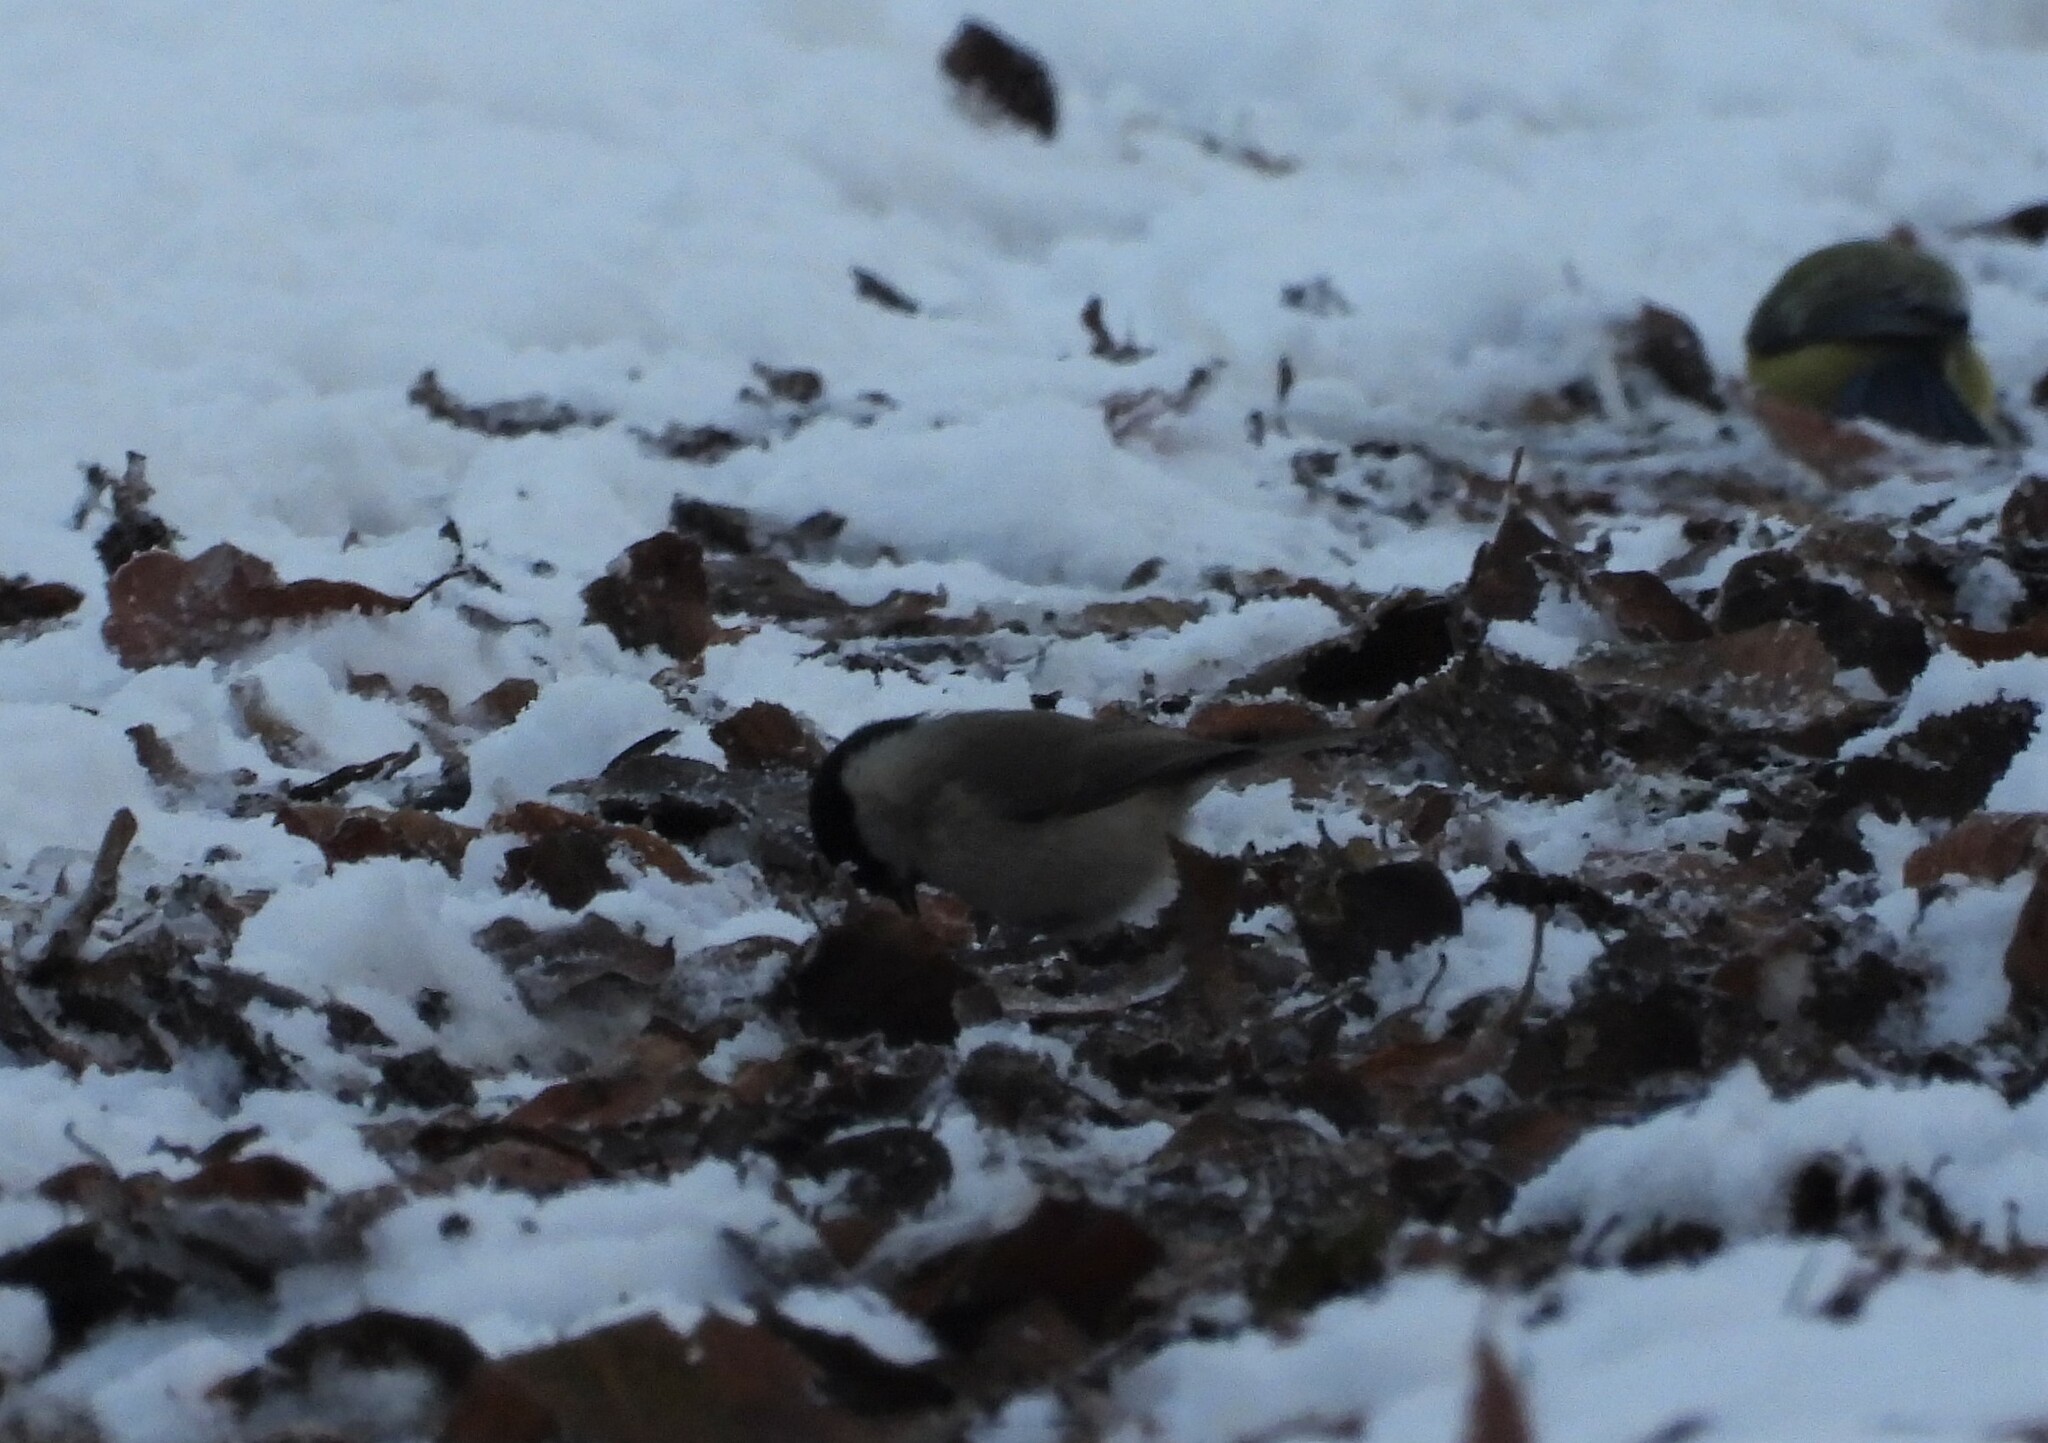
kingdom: Animalia
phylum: Chordata
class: Aves
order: Passeriformes
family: Paridae
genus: Poecile
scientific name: Poecile palustris
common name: Marsh tit
